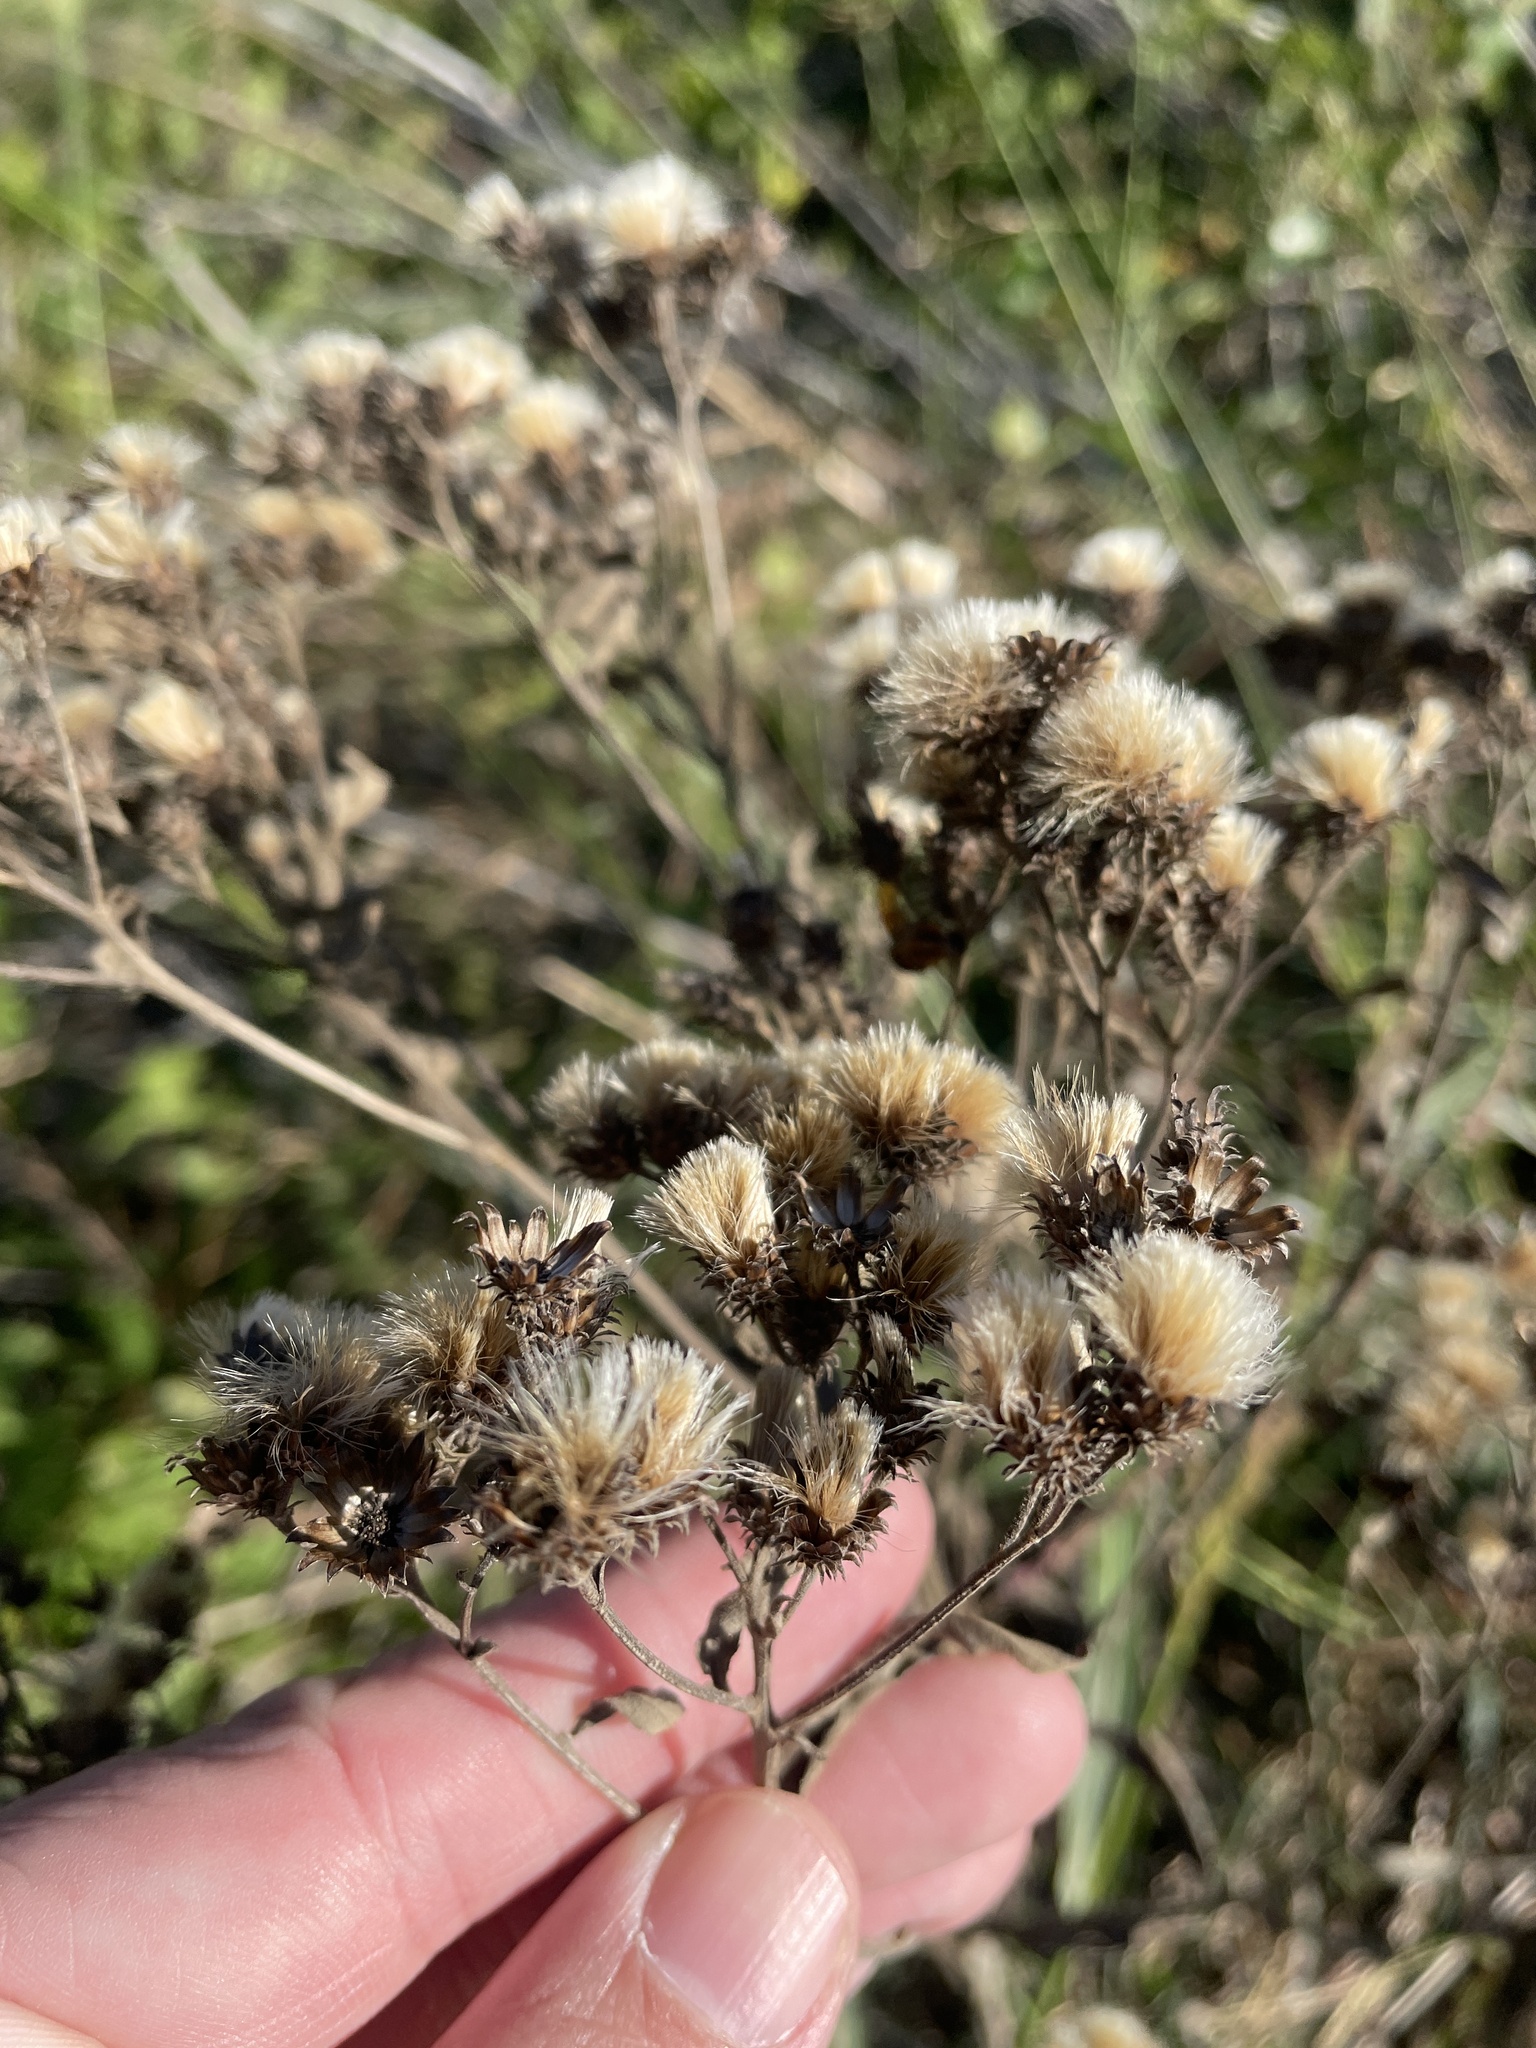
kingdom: Plantae
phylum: Tracheophyta
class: Magnoliopsida
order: Asterales
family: Asteraceae
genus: Vernonia
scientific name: Vernonia baldwinii
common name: Western ironweed
